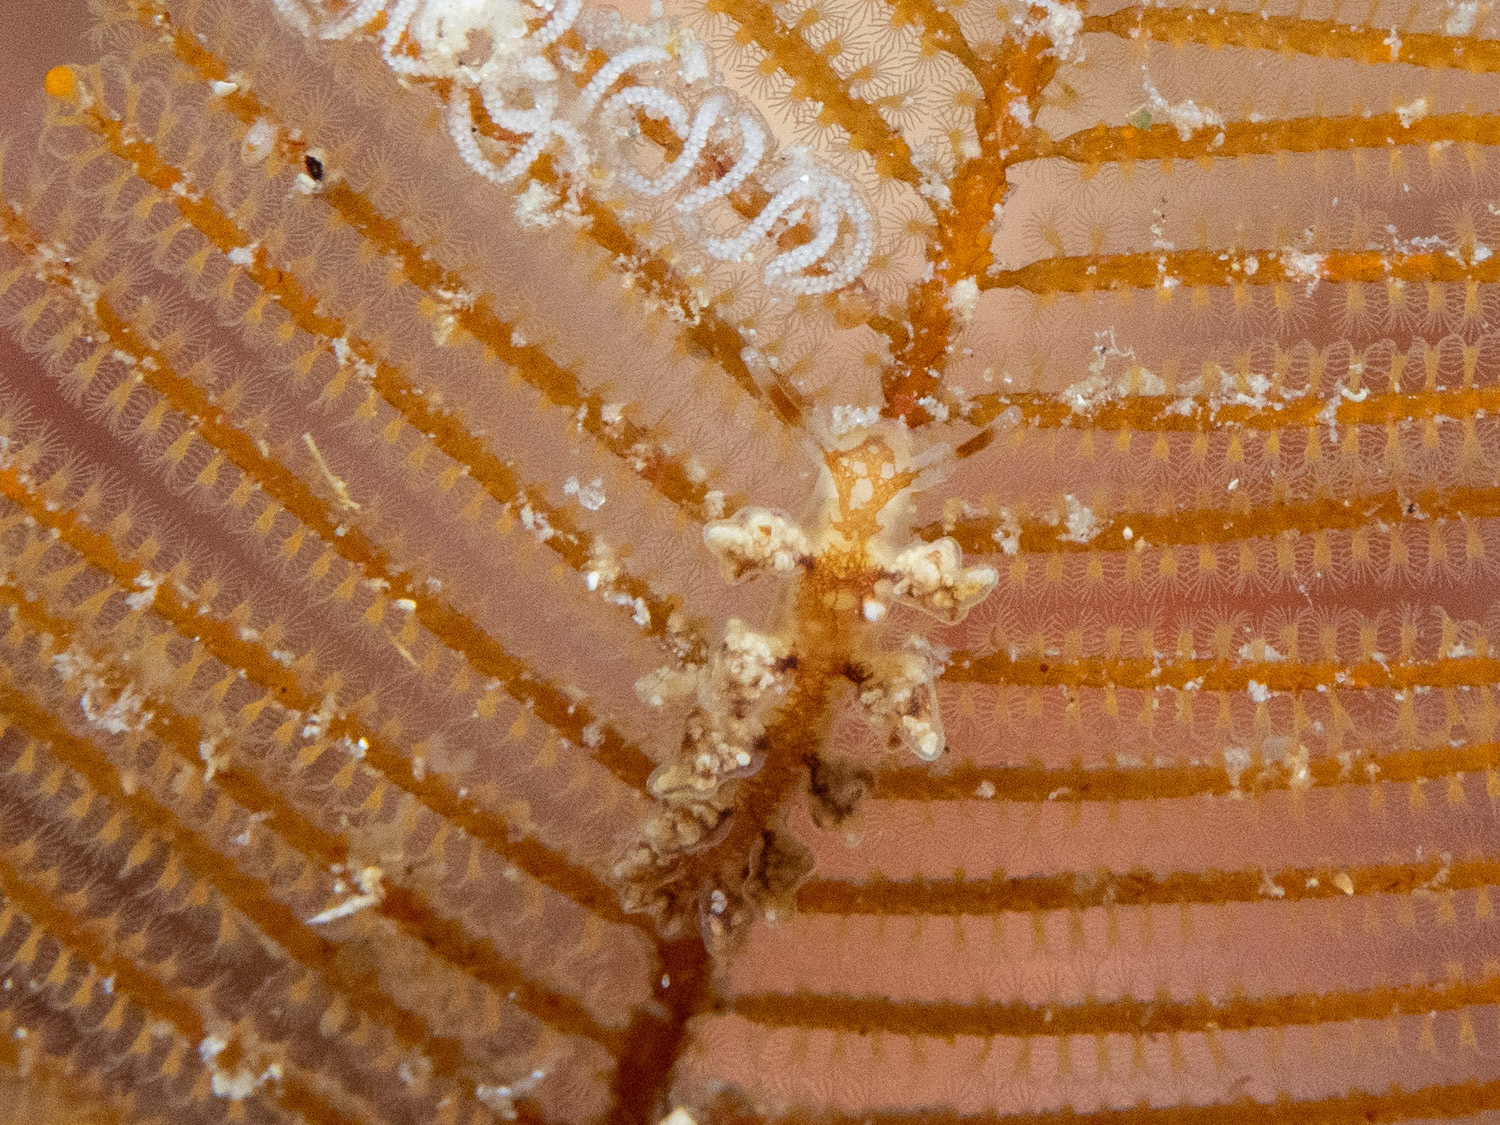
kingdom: Animalia
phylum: Mollusca
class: Gastropoda
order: Nudibranchia
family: Dotidae
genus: Doto
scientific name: Doto pita
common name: Pita doto
